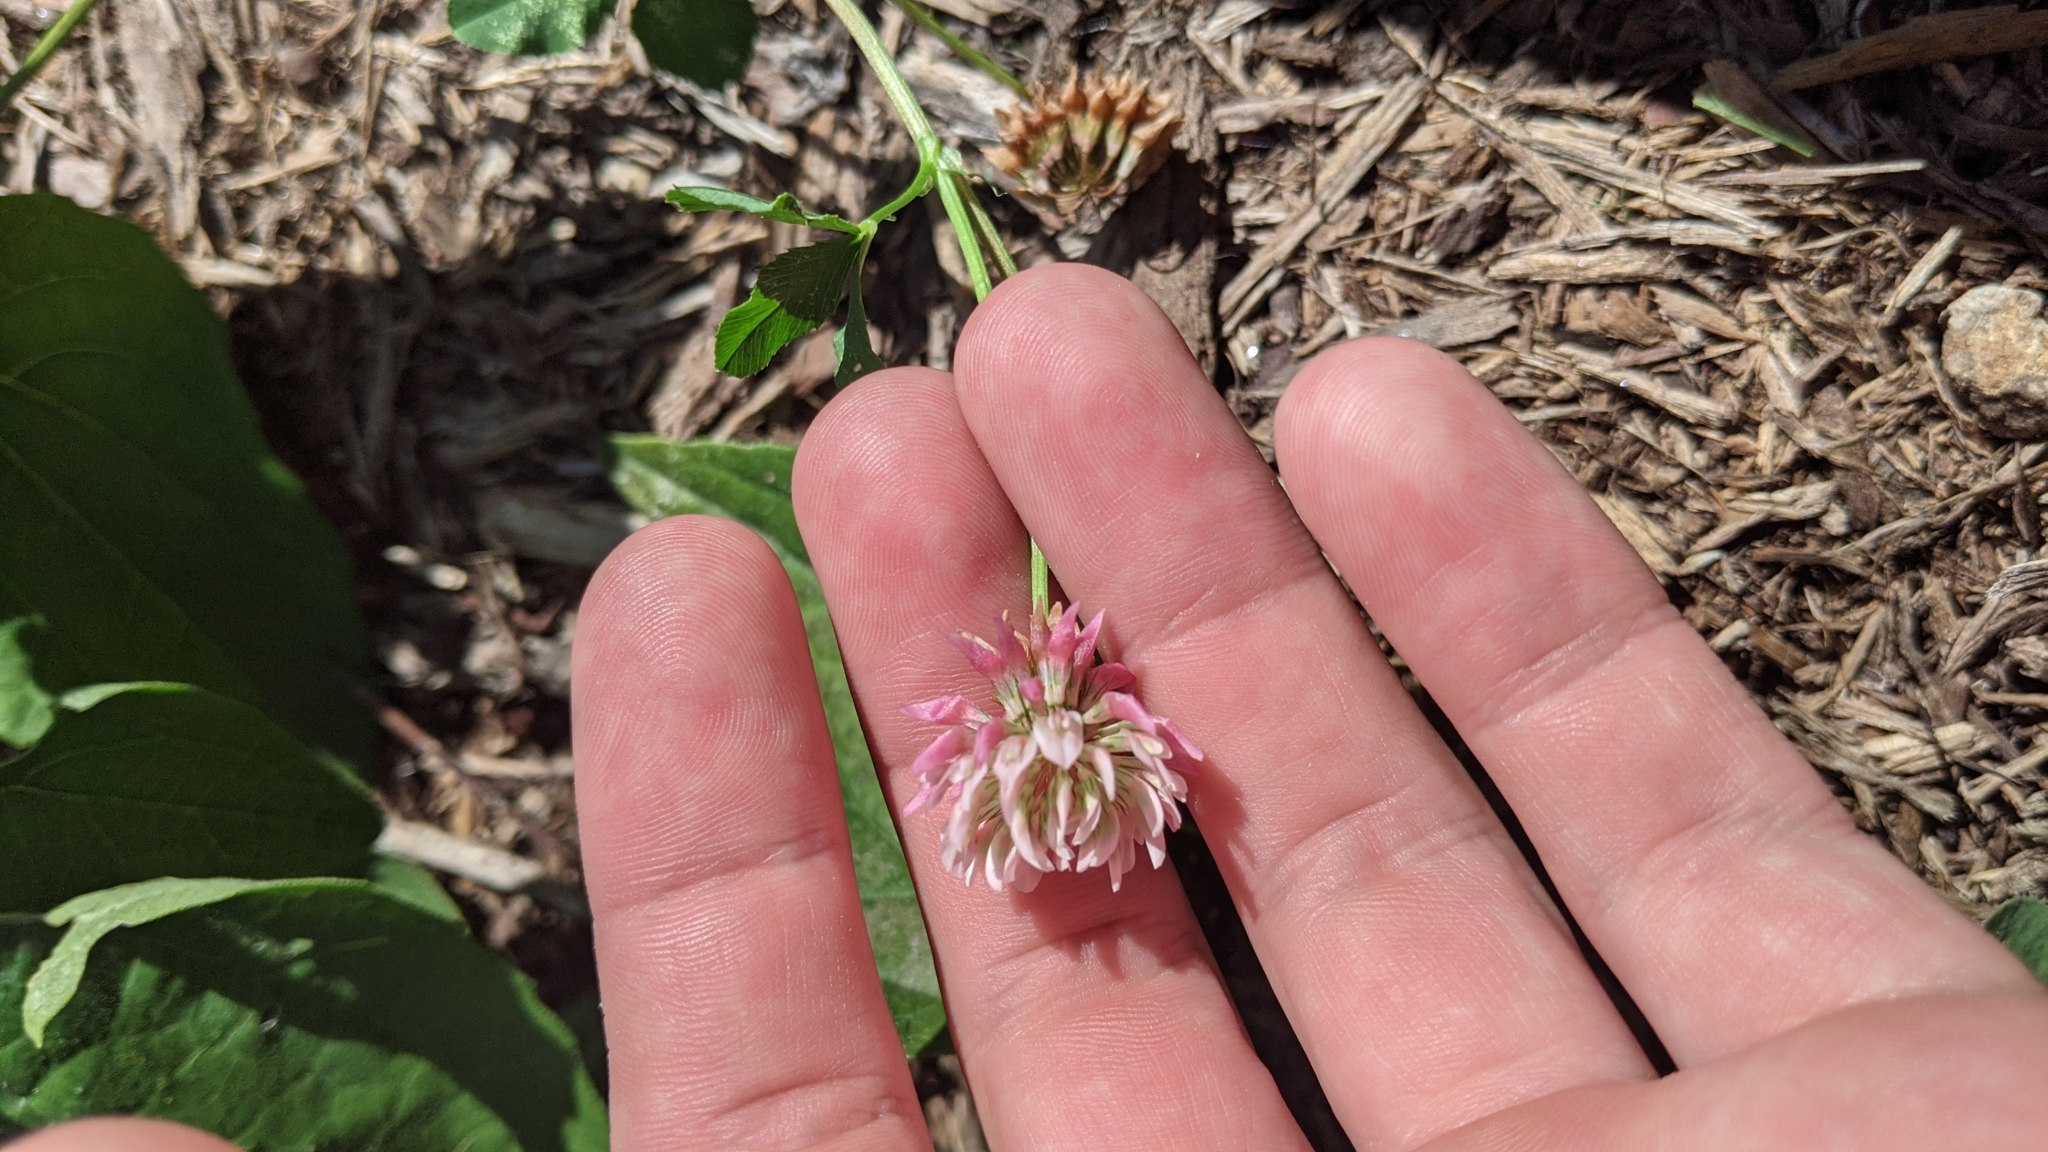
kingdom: Plantae
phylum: Tracheophyta
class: Magnoliopsida
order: Fabales
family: Fabaceae
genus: Trifolium
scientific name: Trifolium hybridum
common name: Alsike clover
